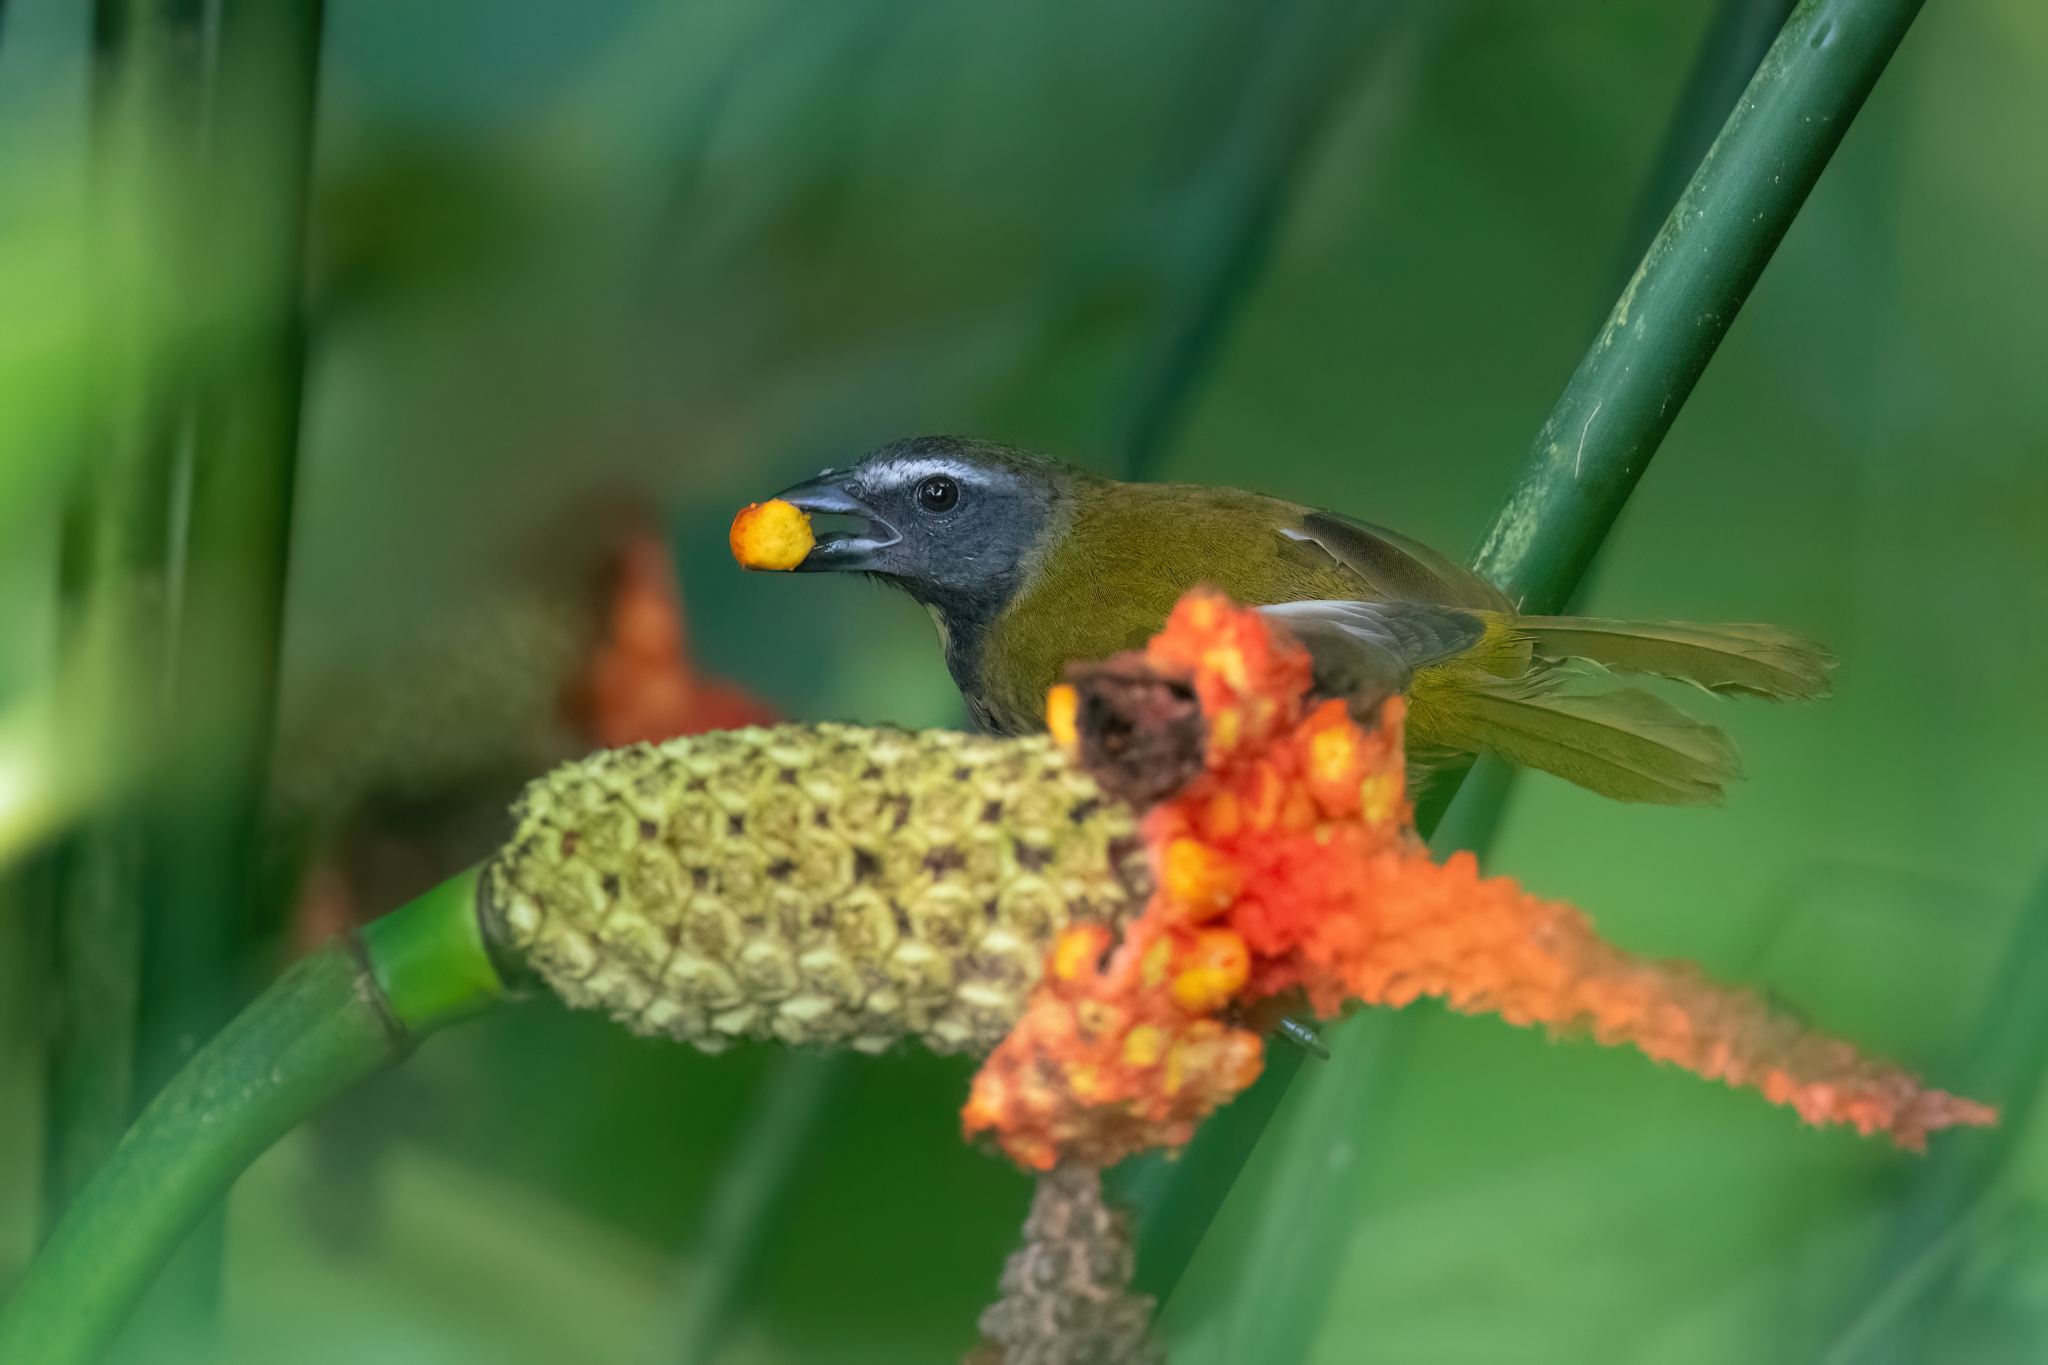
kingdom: Animalia
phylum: Chordata
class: Aves
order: Passeriformes
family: Thraupidae
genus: Saltator
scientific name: Saltator maximus
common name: Buff-throated saltator
